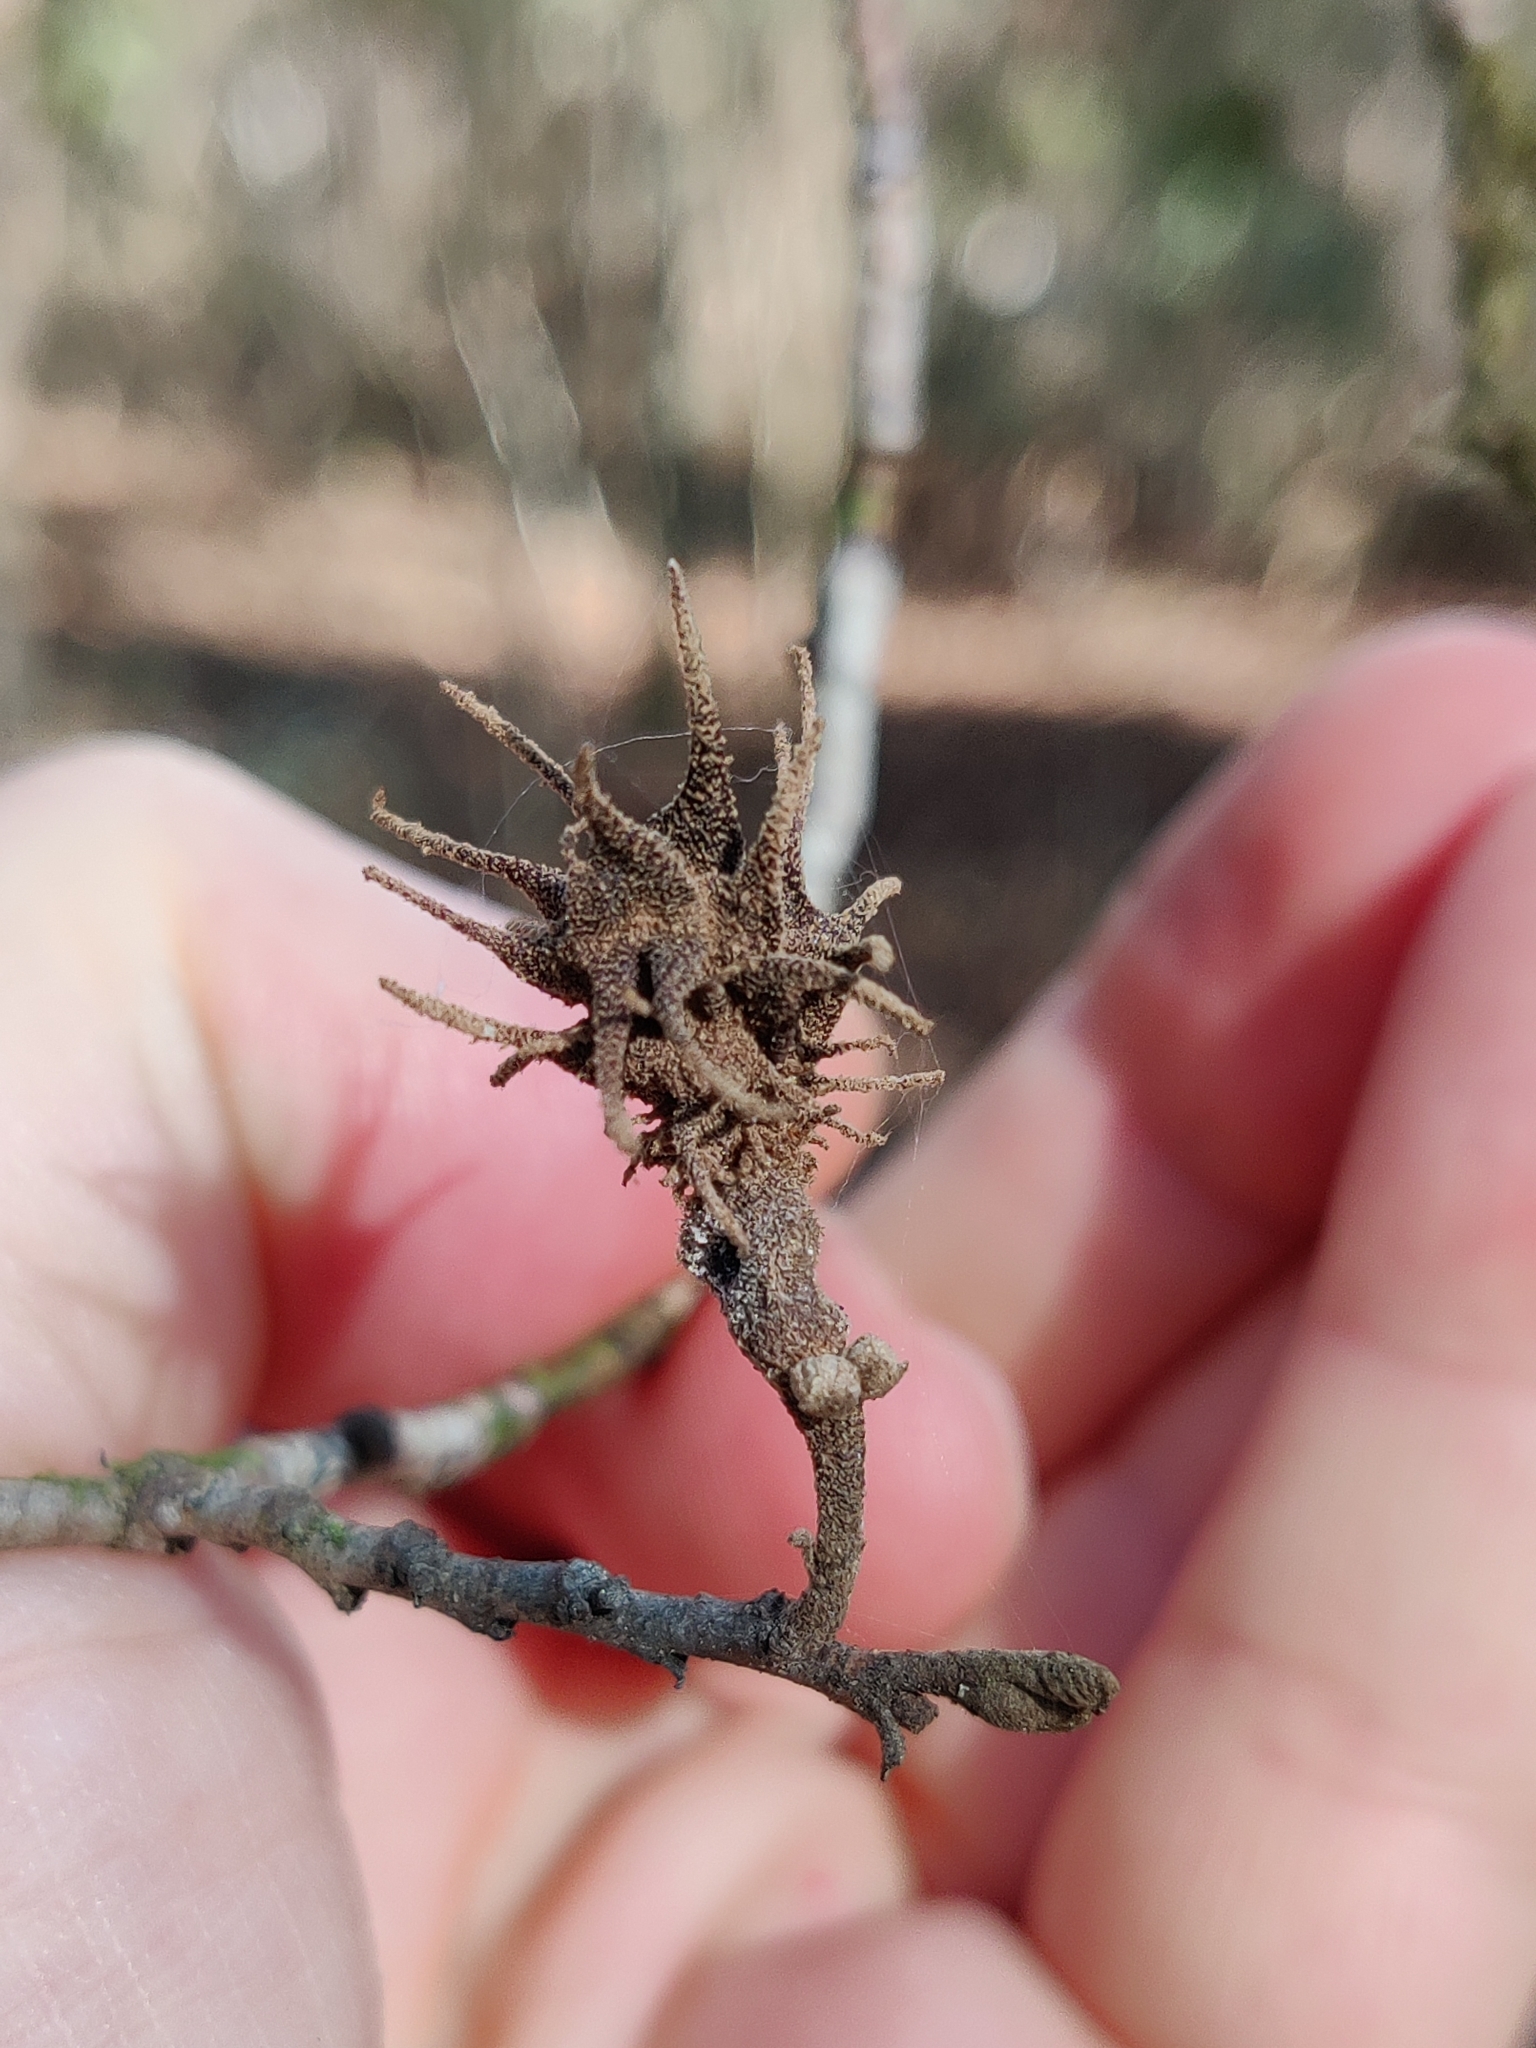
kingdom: Animalia
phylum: Arthropoda
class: Insecta
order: Hemiptera
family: Aphididae
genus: Hamamelistes
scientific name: Hamamelistes spinosus
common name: Witch hazel gall aphid
